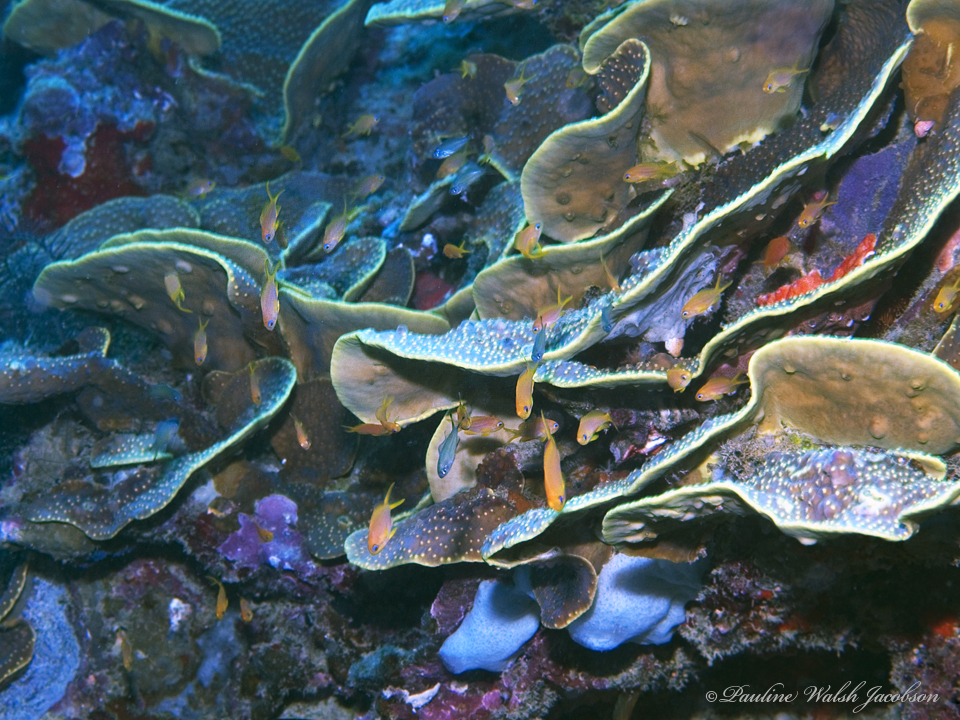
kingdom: Animalia
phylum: Chordata
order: Perciformes
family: Serranidae
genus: Pseudanthias
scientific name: Pseudanthias squamipinnis
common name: Scalefin anthias
